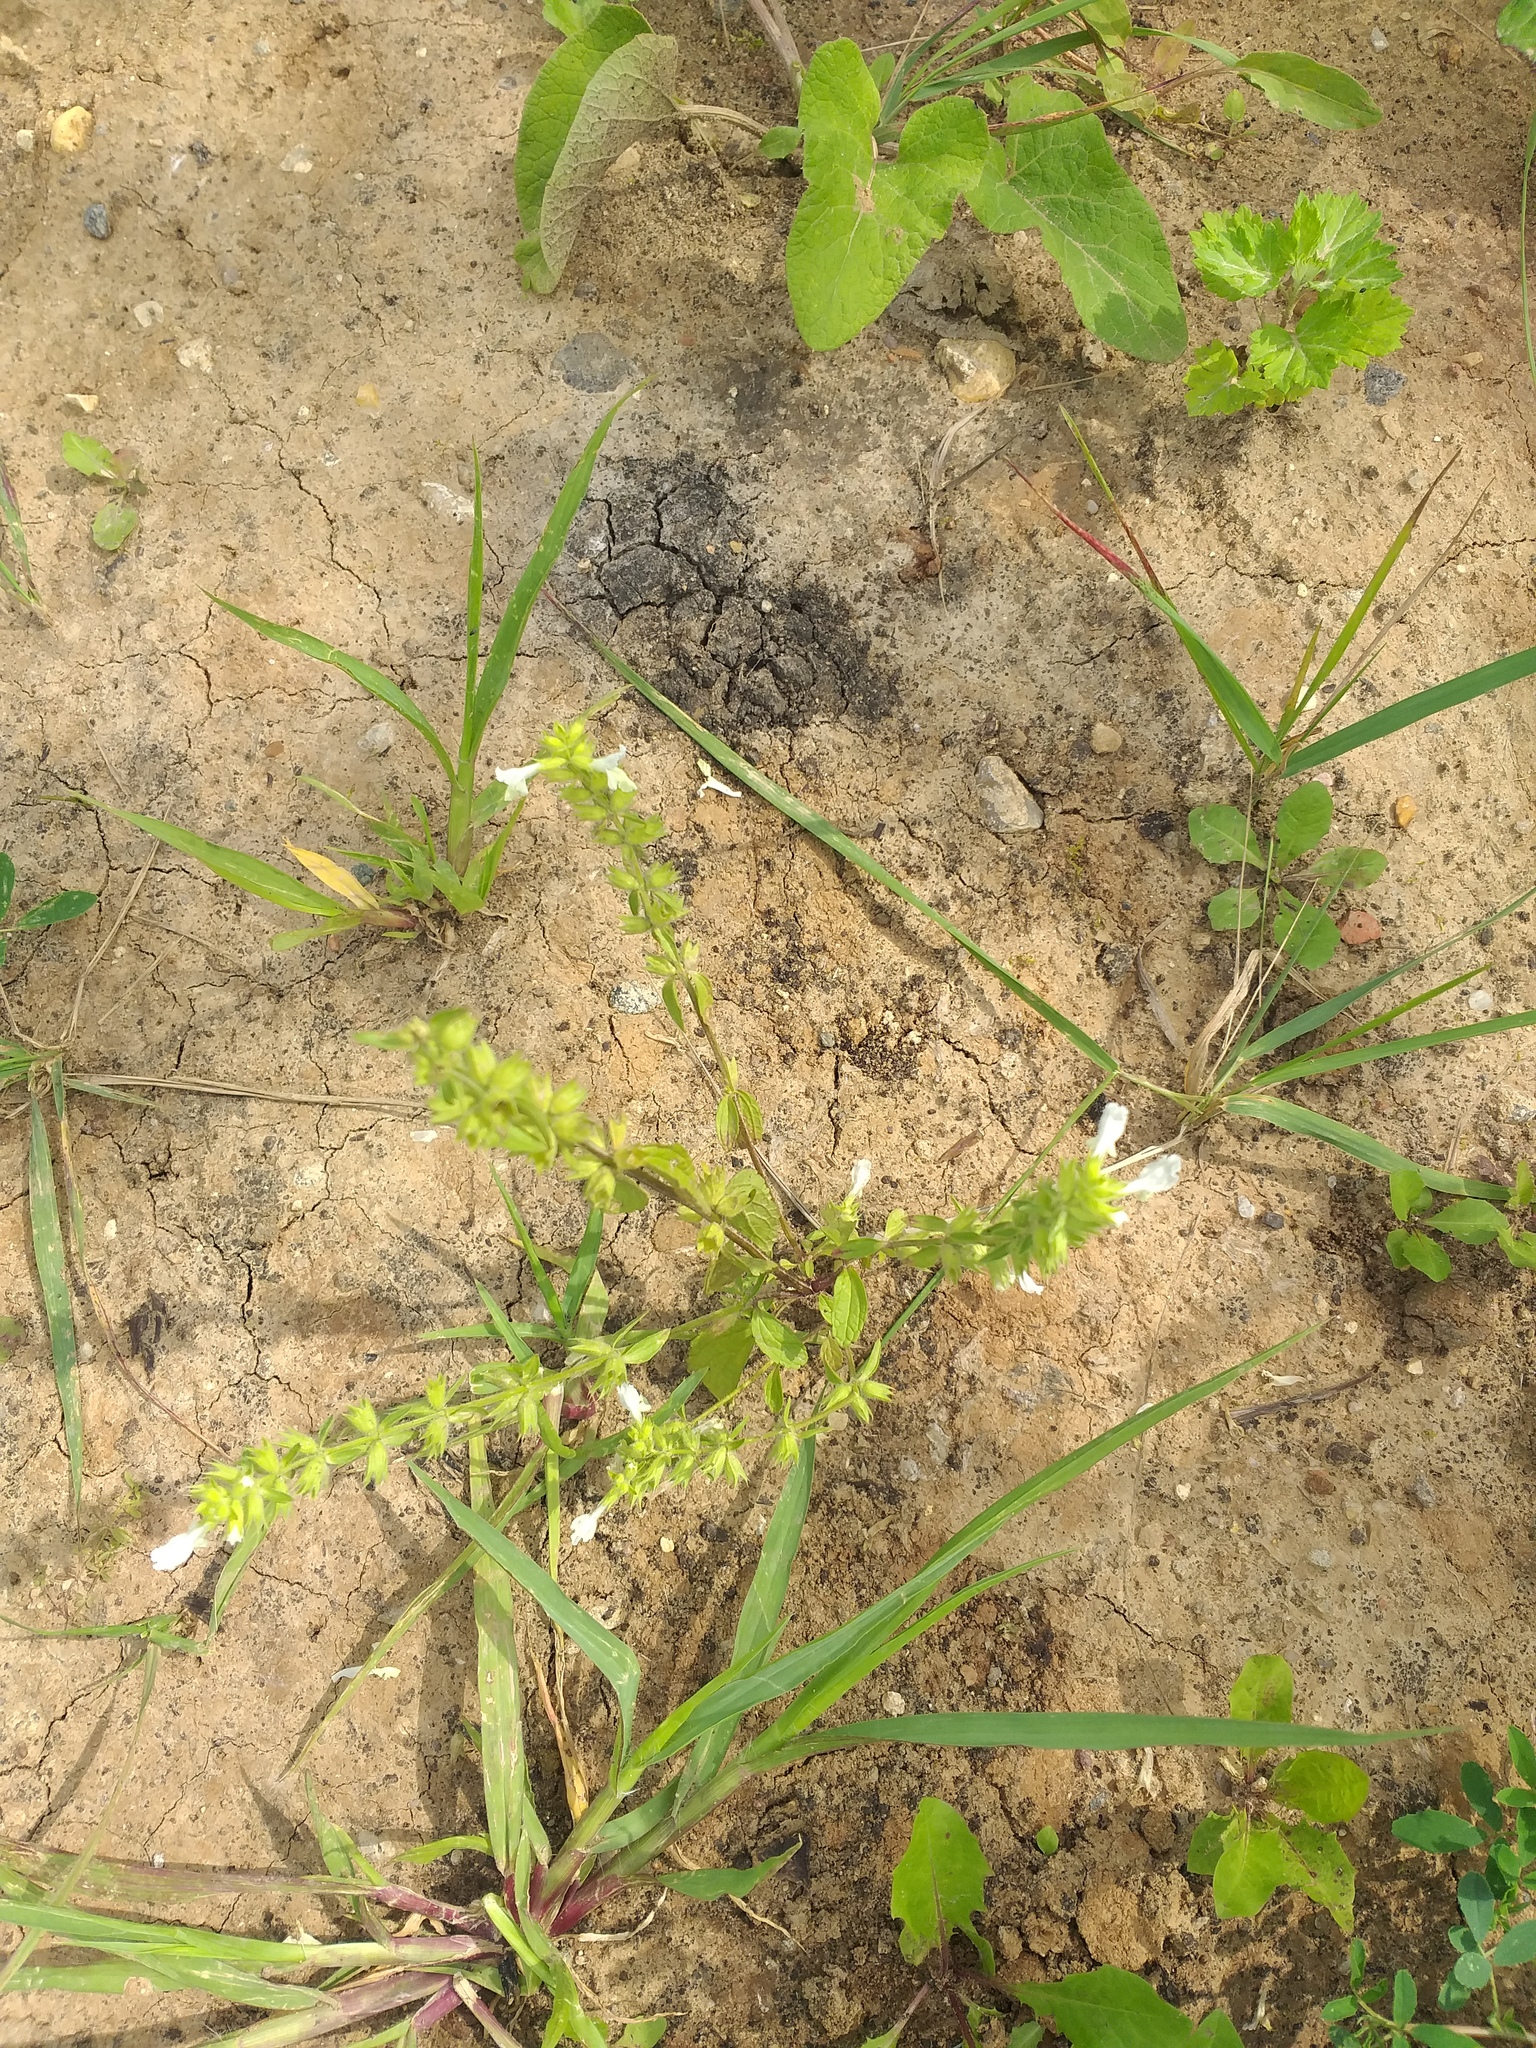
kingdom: Plantae
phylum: Tracheophyta
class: Magnoliopsida
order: Lamiales
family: Lamiaceae
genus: Stachys
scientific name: Stachys annua
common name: Annual yellow-woundwort
